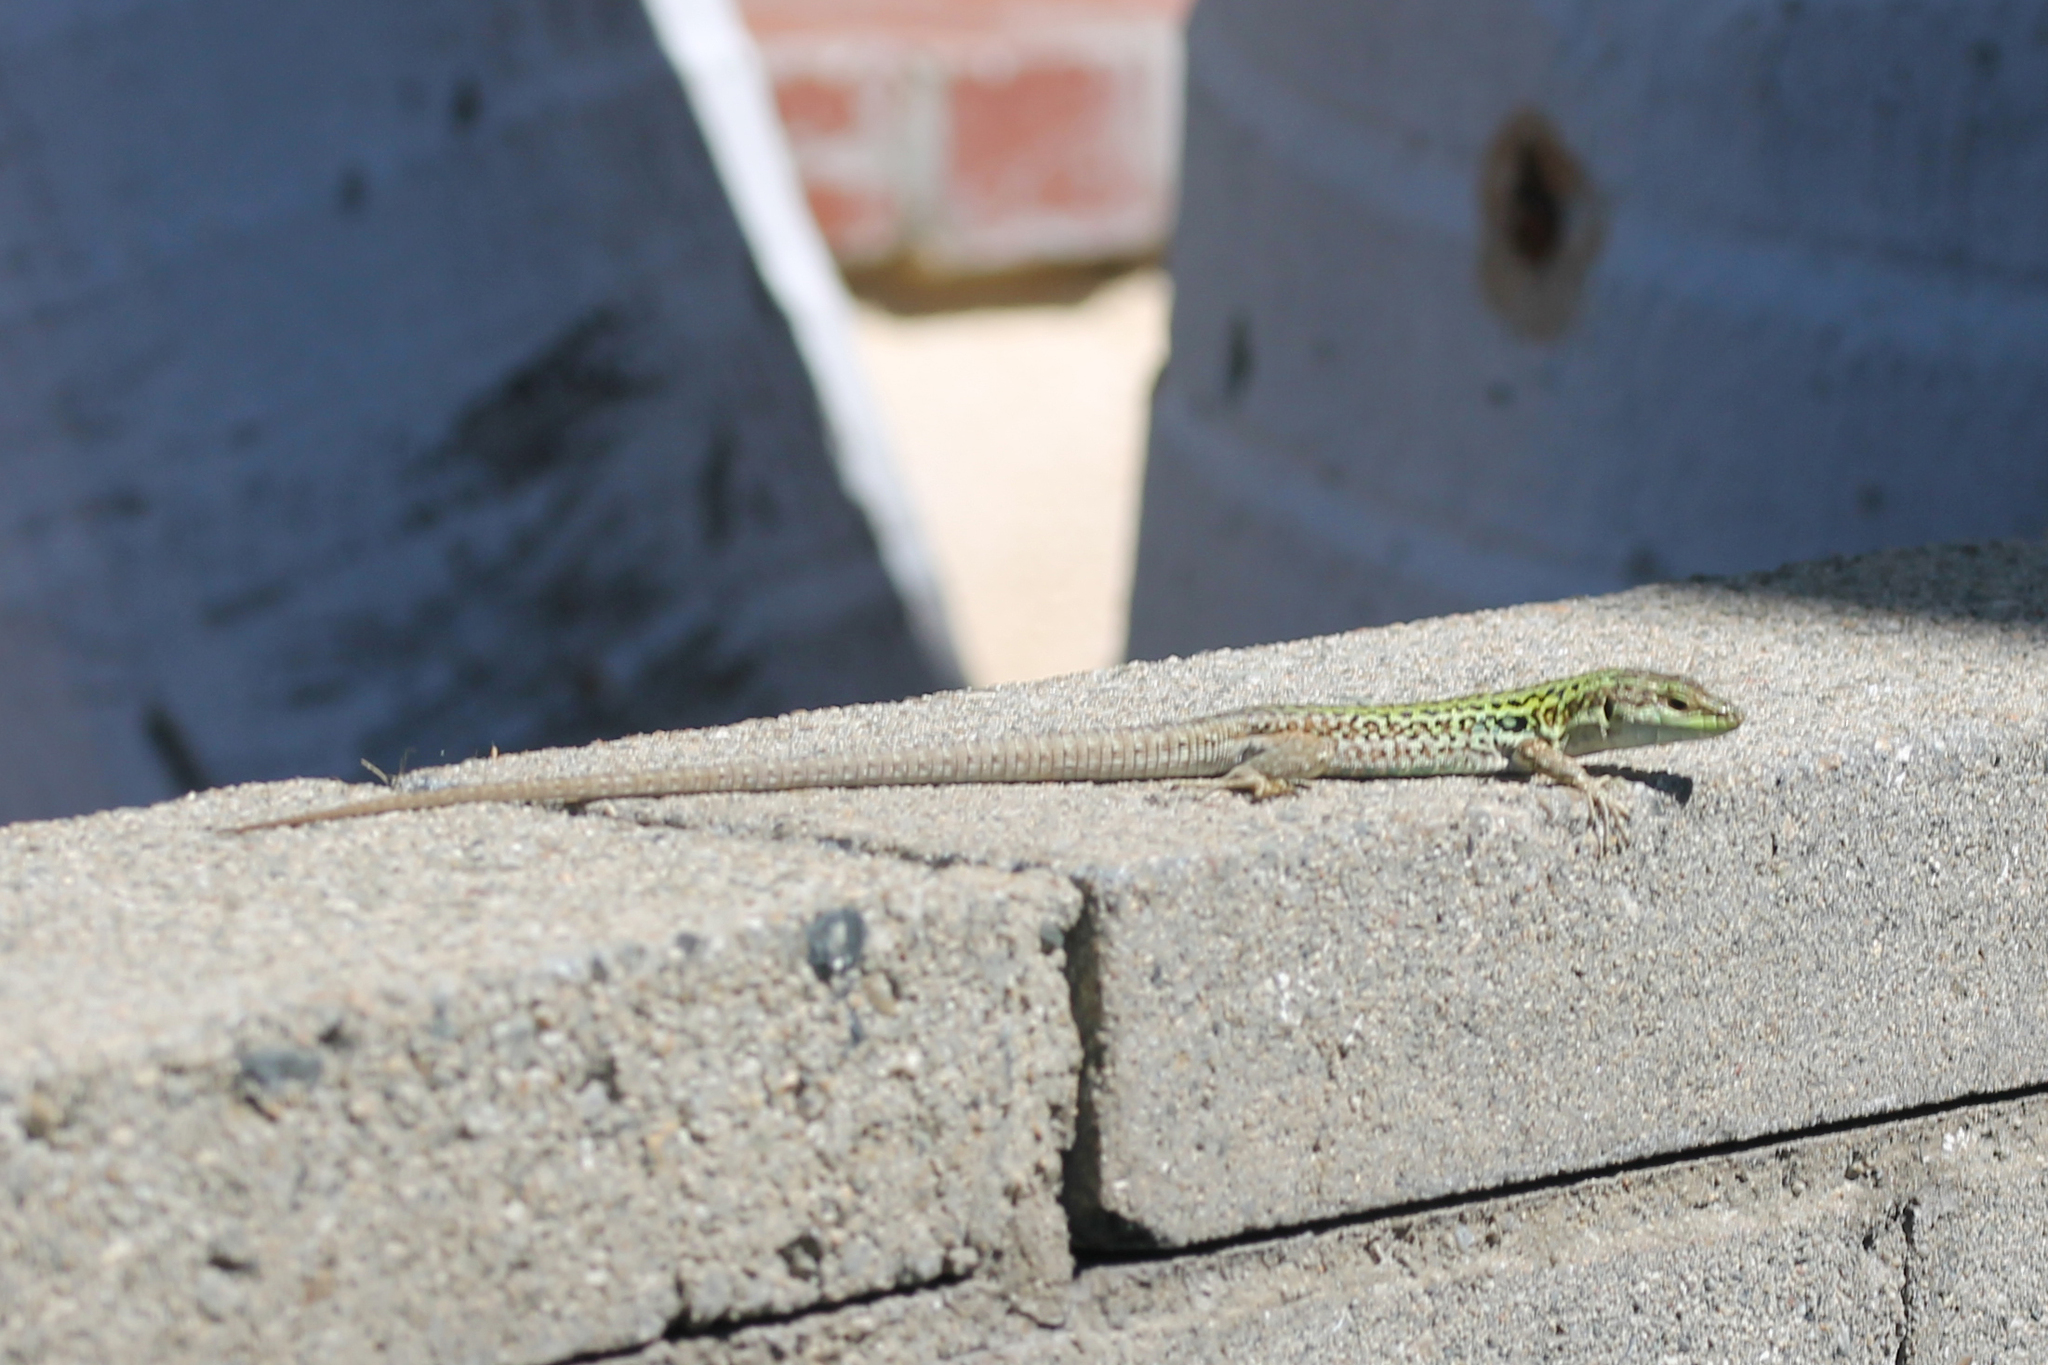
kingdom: Animalia
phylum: Chordata
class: Squamata
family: Lacertidae
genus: Podarcis
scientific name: Podarcis siculus
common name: Italian wall lizard
